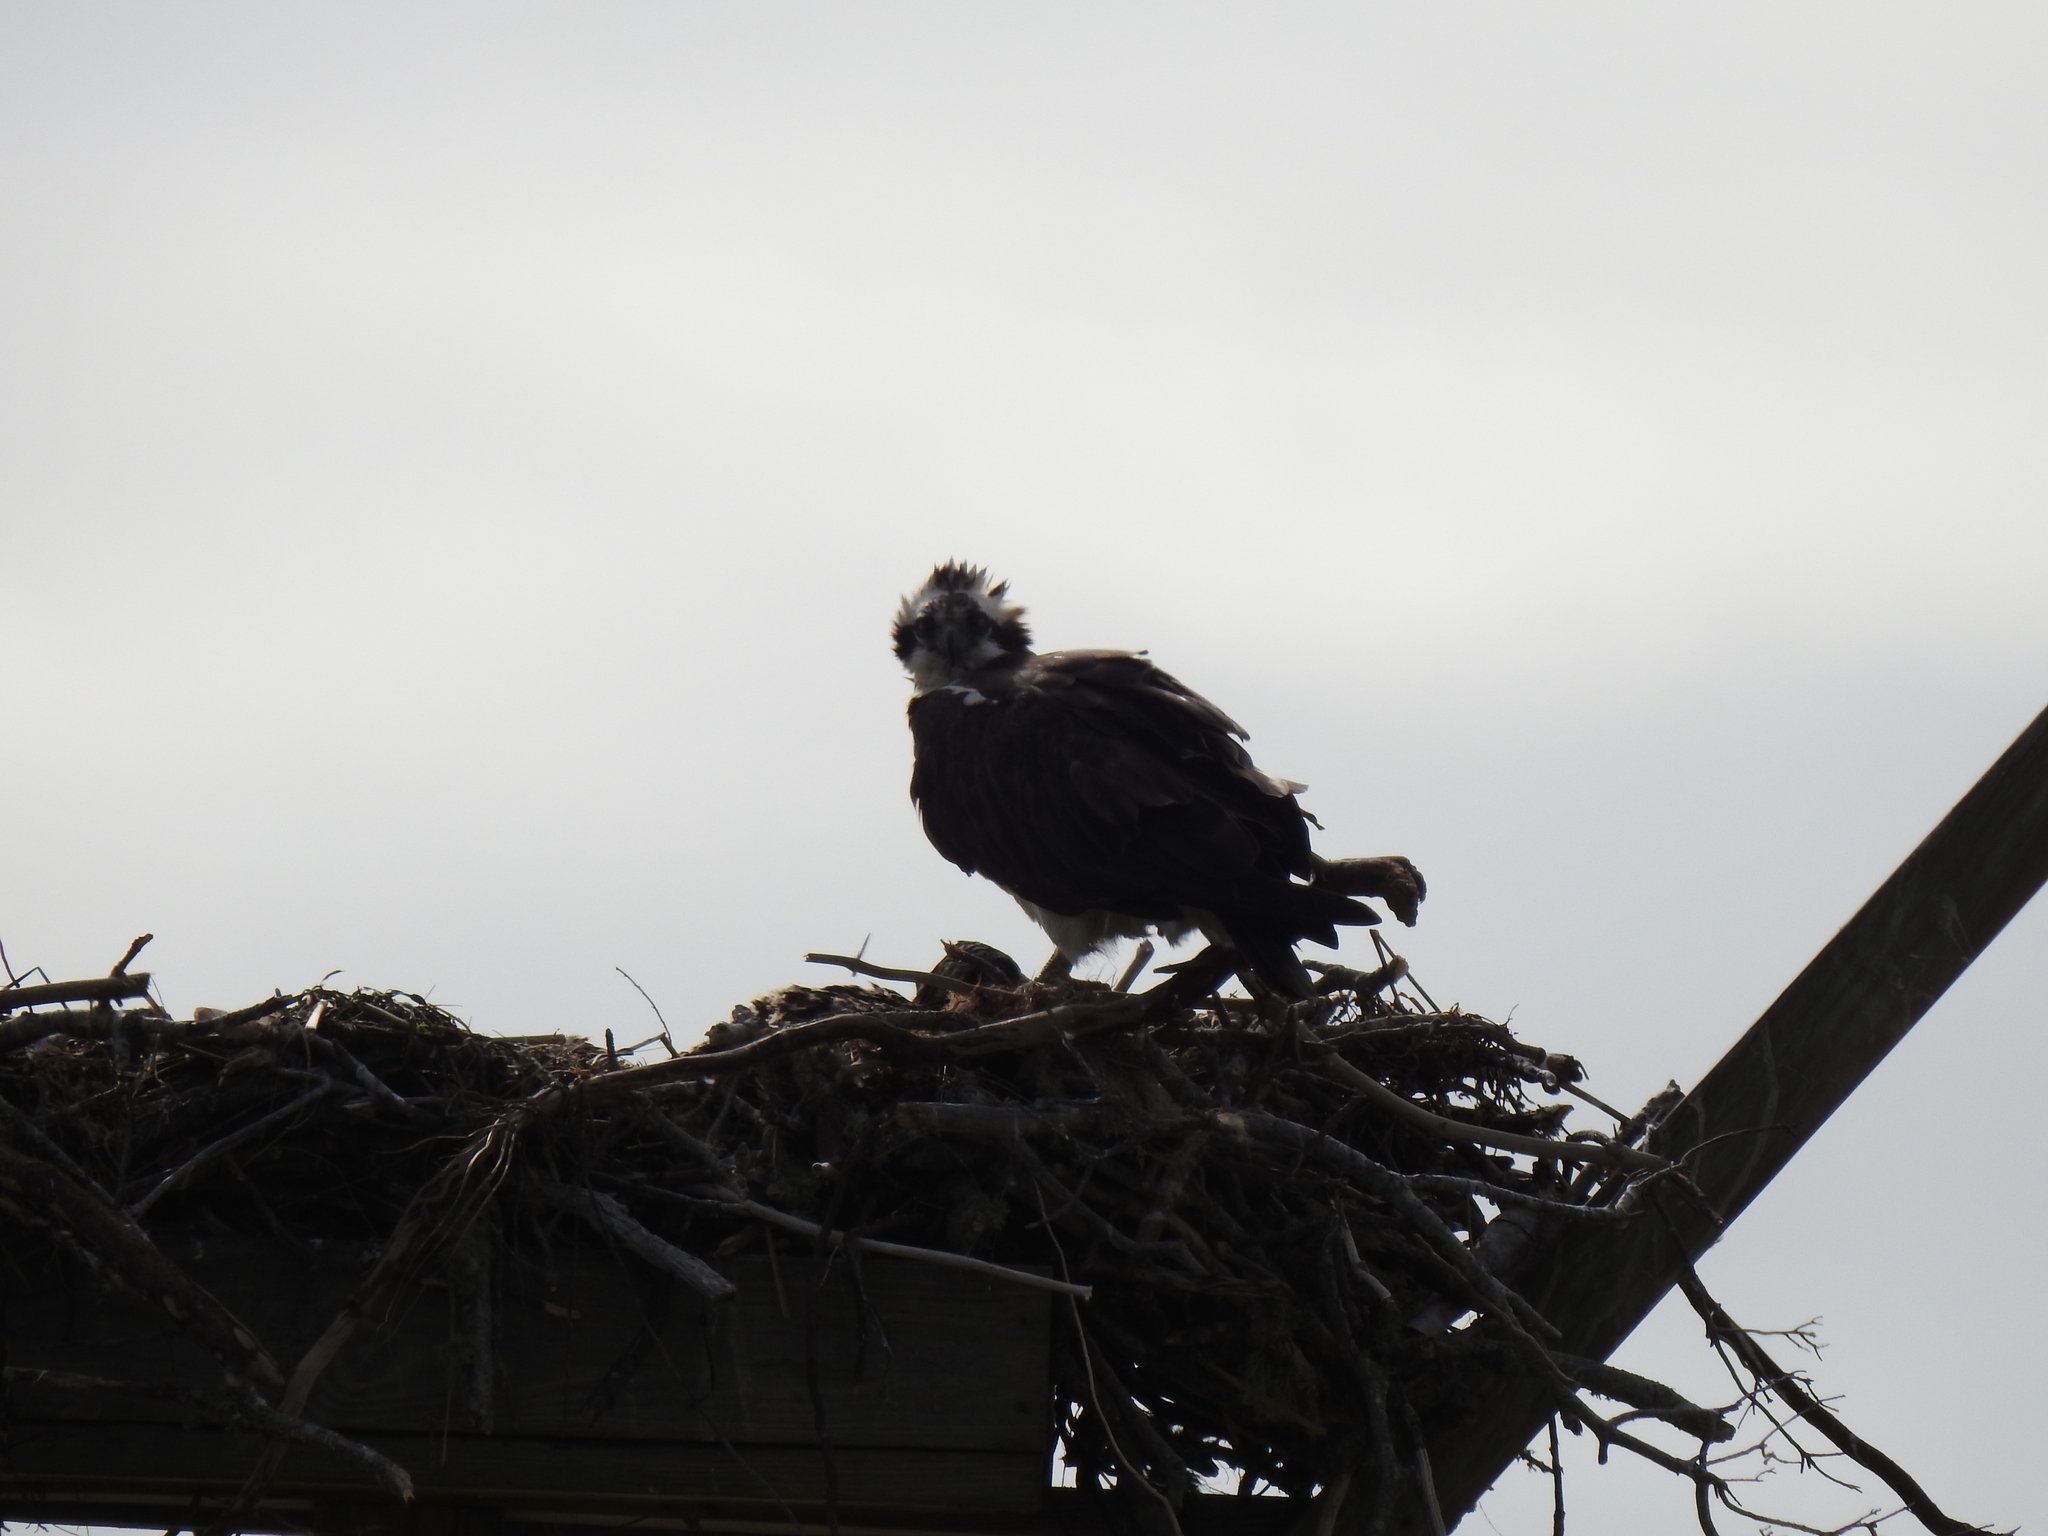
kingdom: Animalia
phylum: Chordata
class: Aves
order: Accipitriformes
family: Pandionidae
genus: Pandion
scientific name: Pandion haliaetus
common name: Osprey
